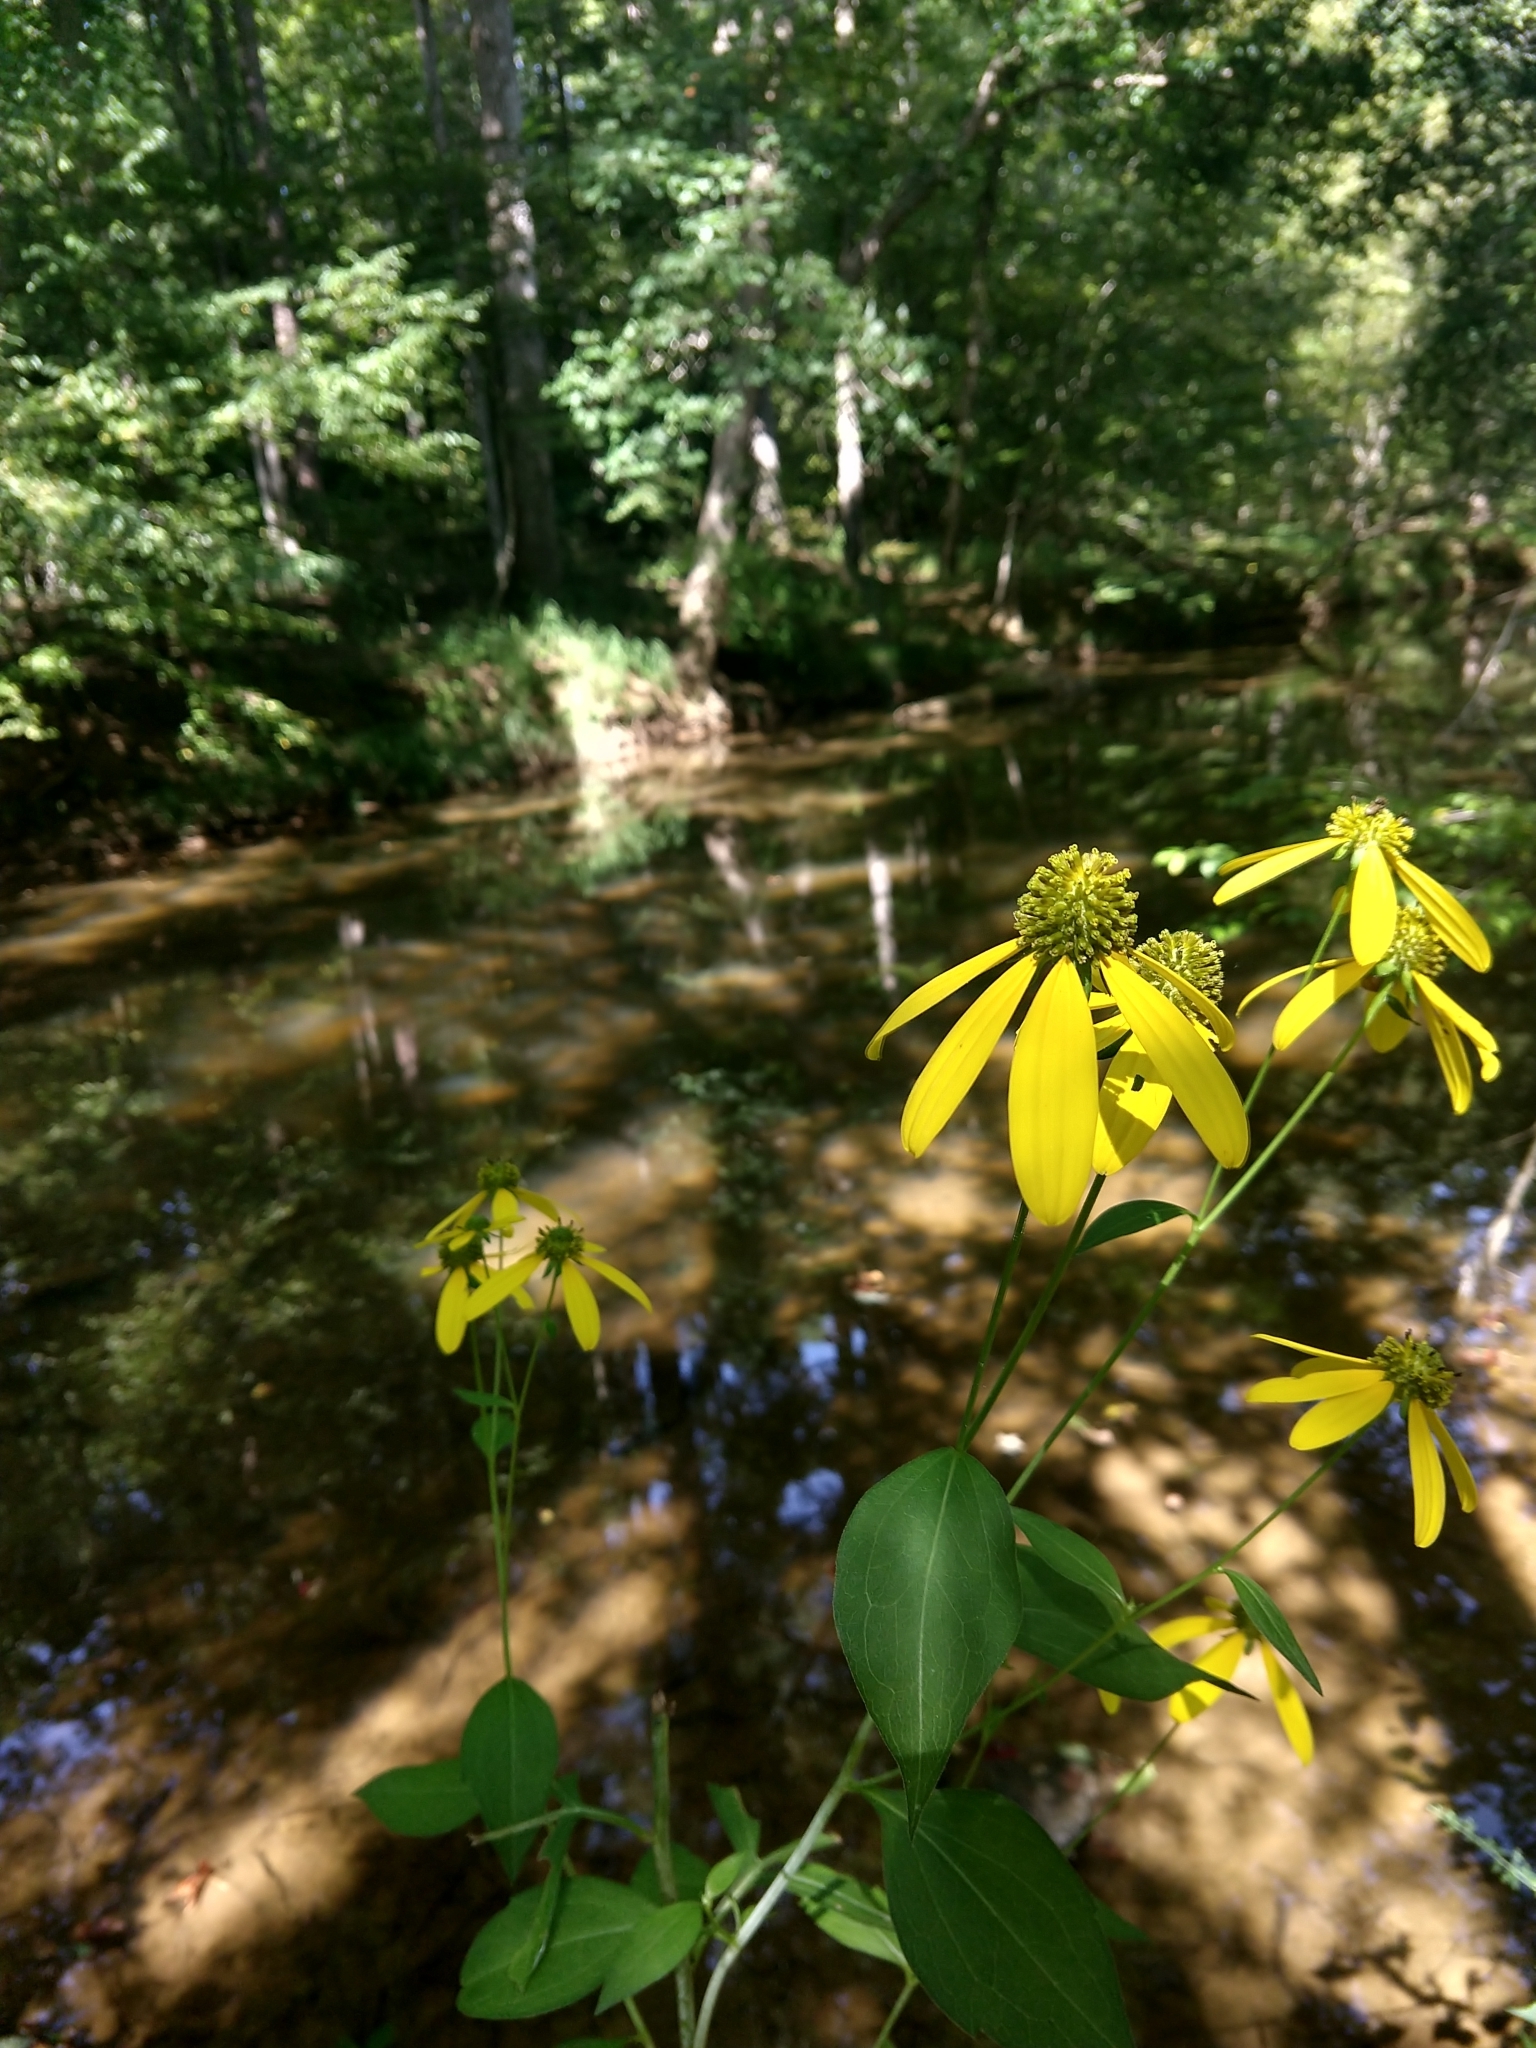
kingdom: Plantae
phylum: Tracheophyta
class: Magnoliopsida
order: Asterales
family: Asteraceae
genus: Rudbeckia
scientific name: Rudbeckia laciniata
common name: Coneflower
